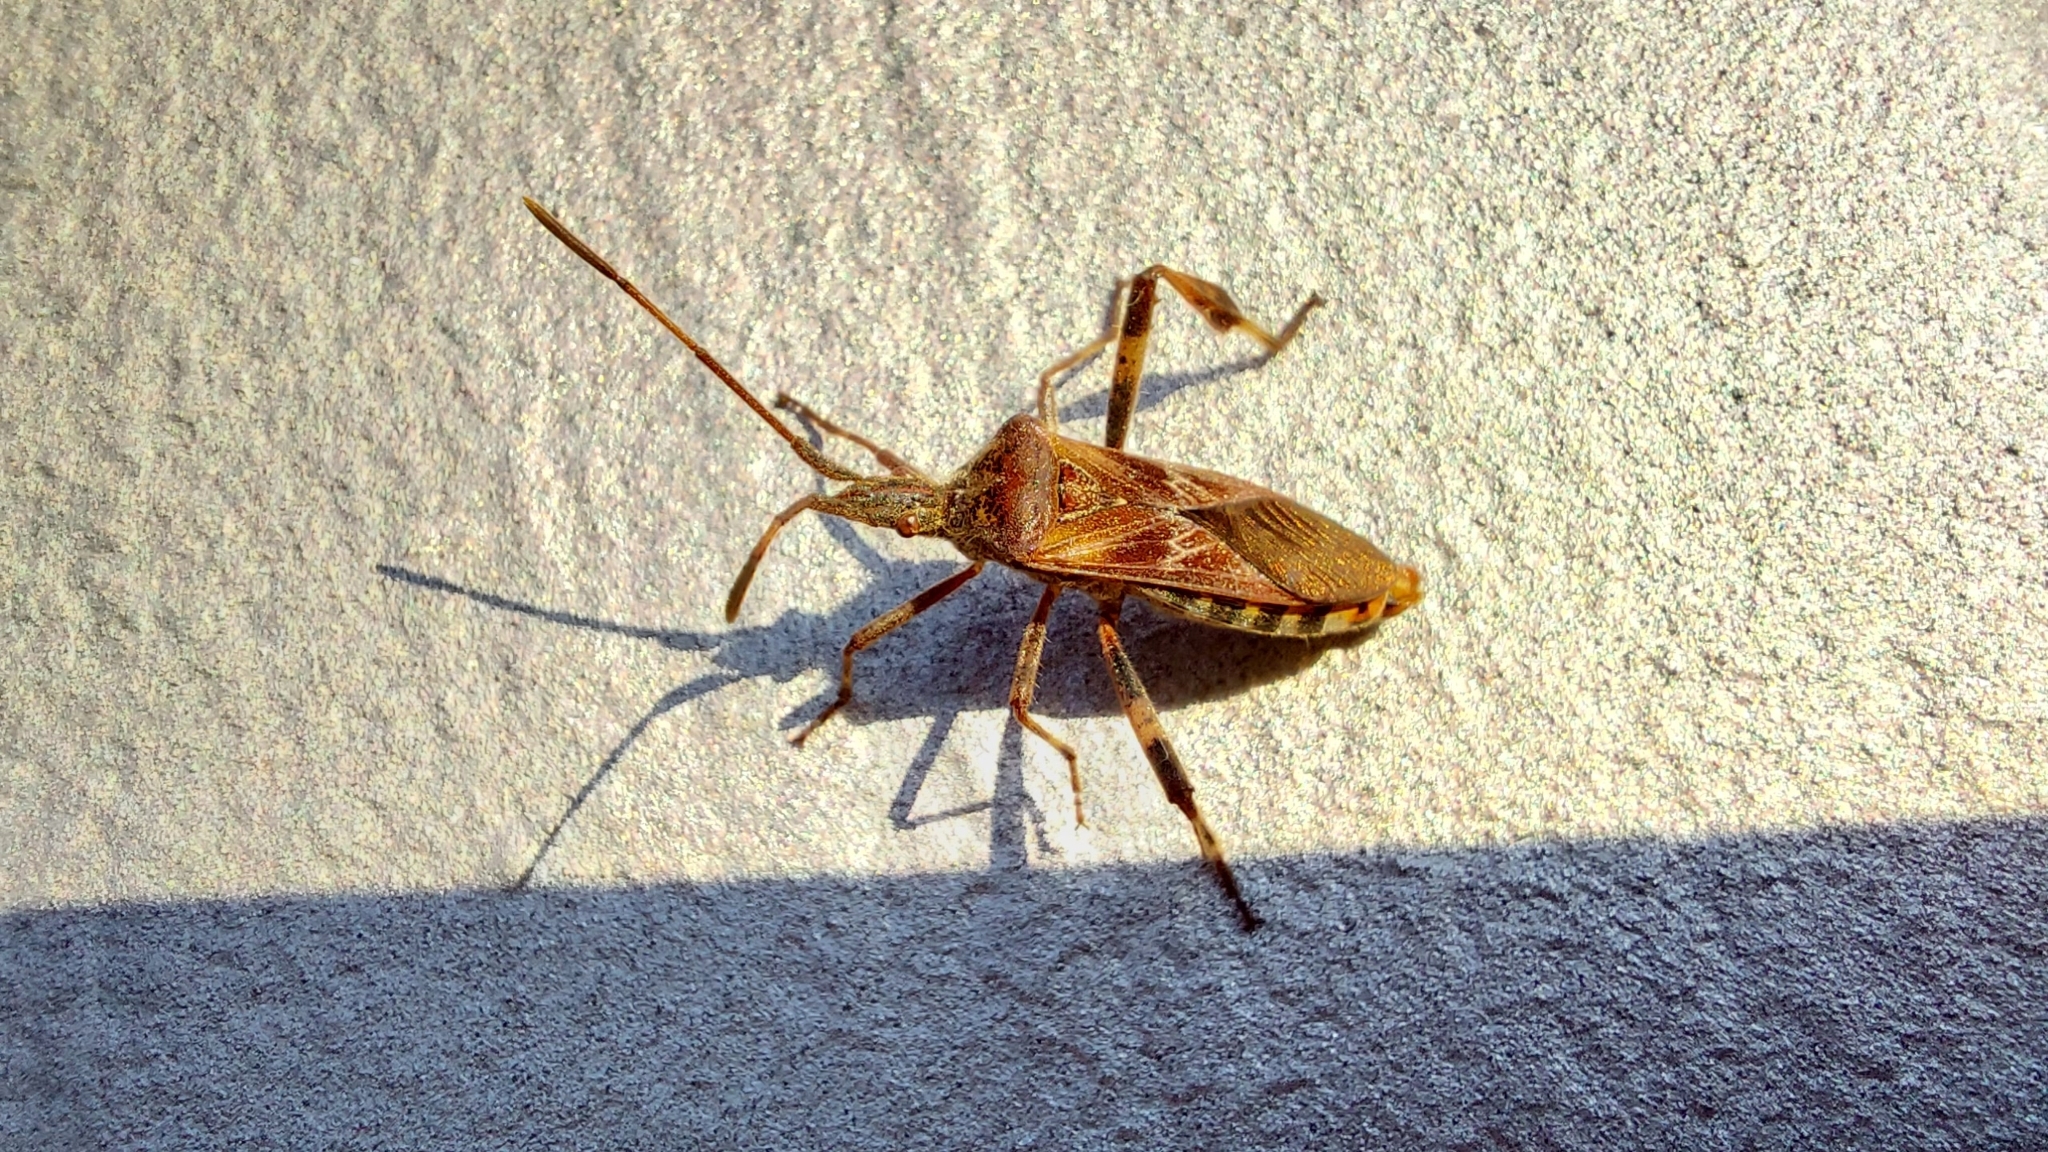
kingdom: Animalia
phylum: Arthropoda
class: Insecta
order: Hemiptera
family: Coreidae
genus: Leptoglossus
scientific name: Leptoglossus occidentalis
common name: Western conifer-seed bug
